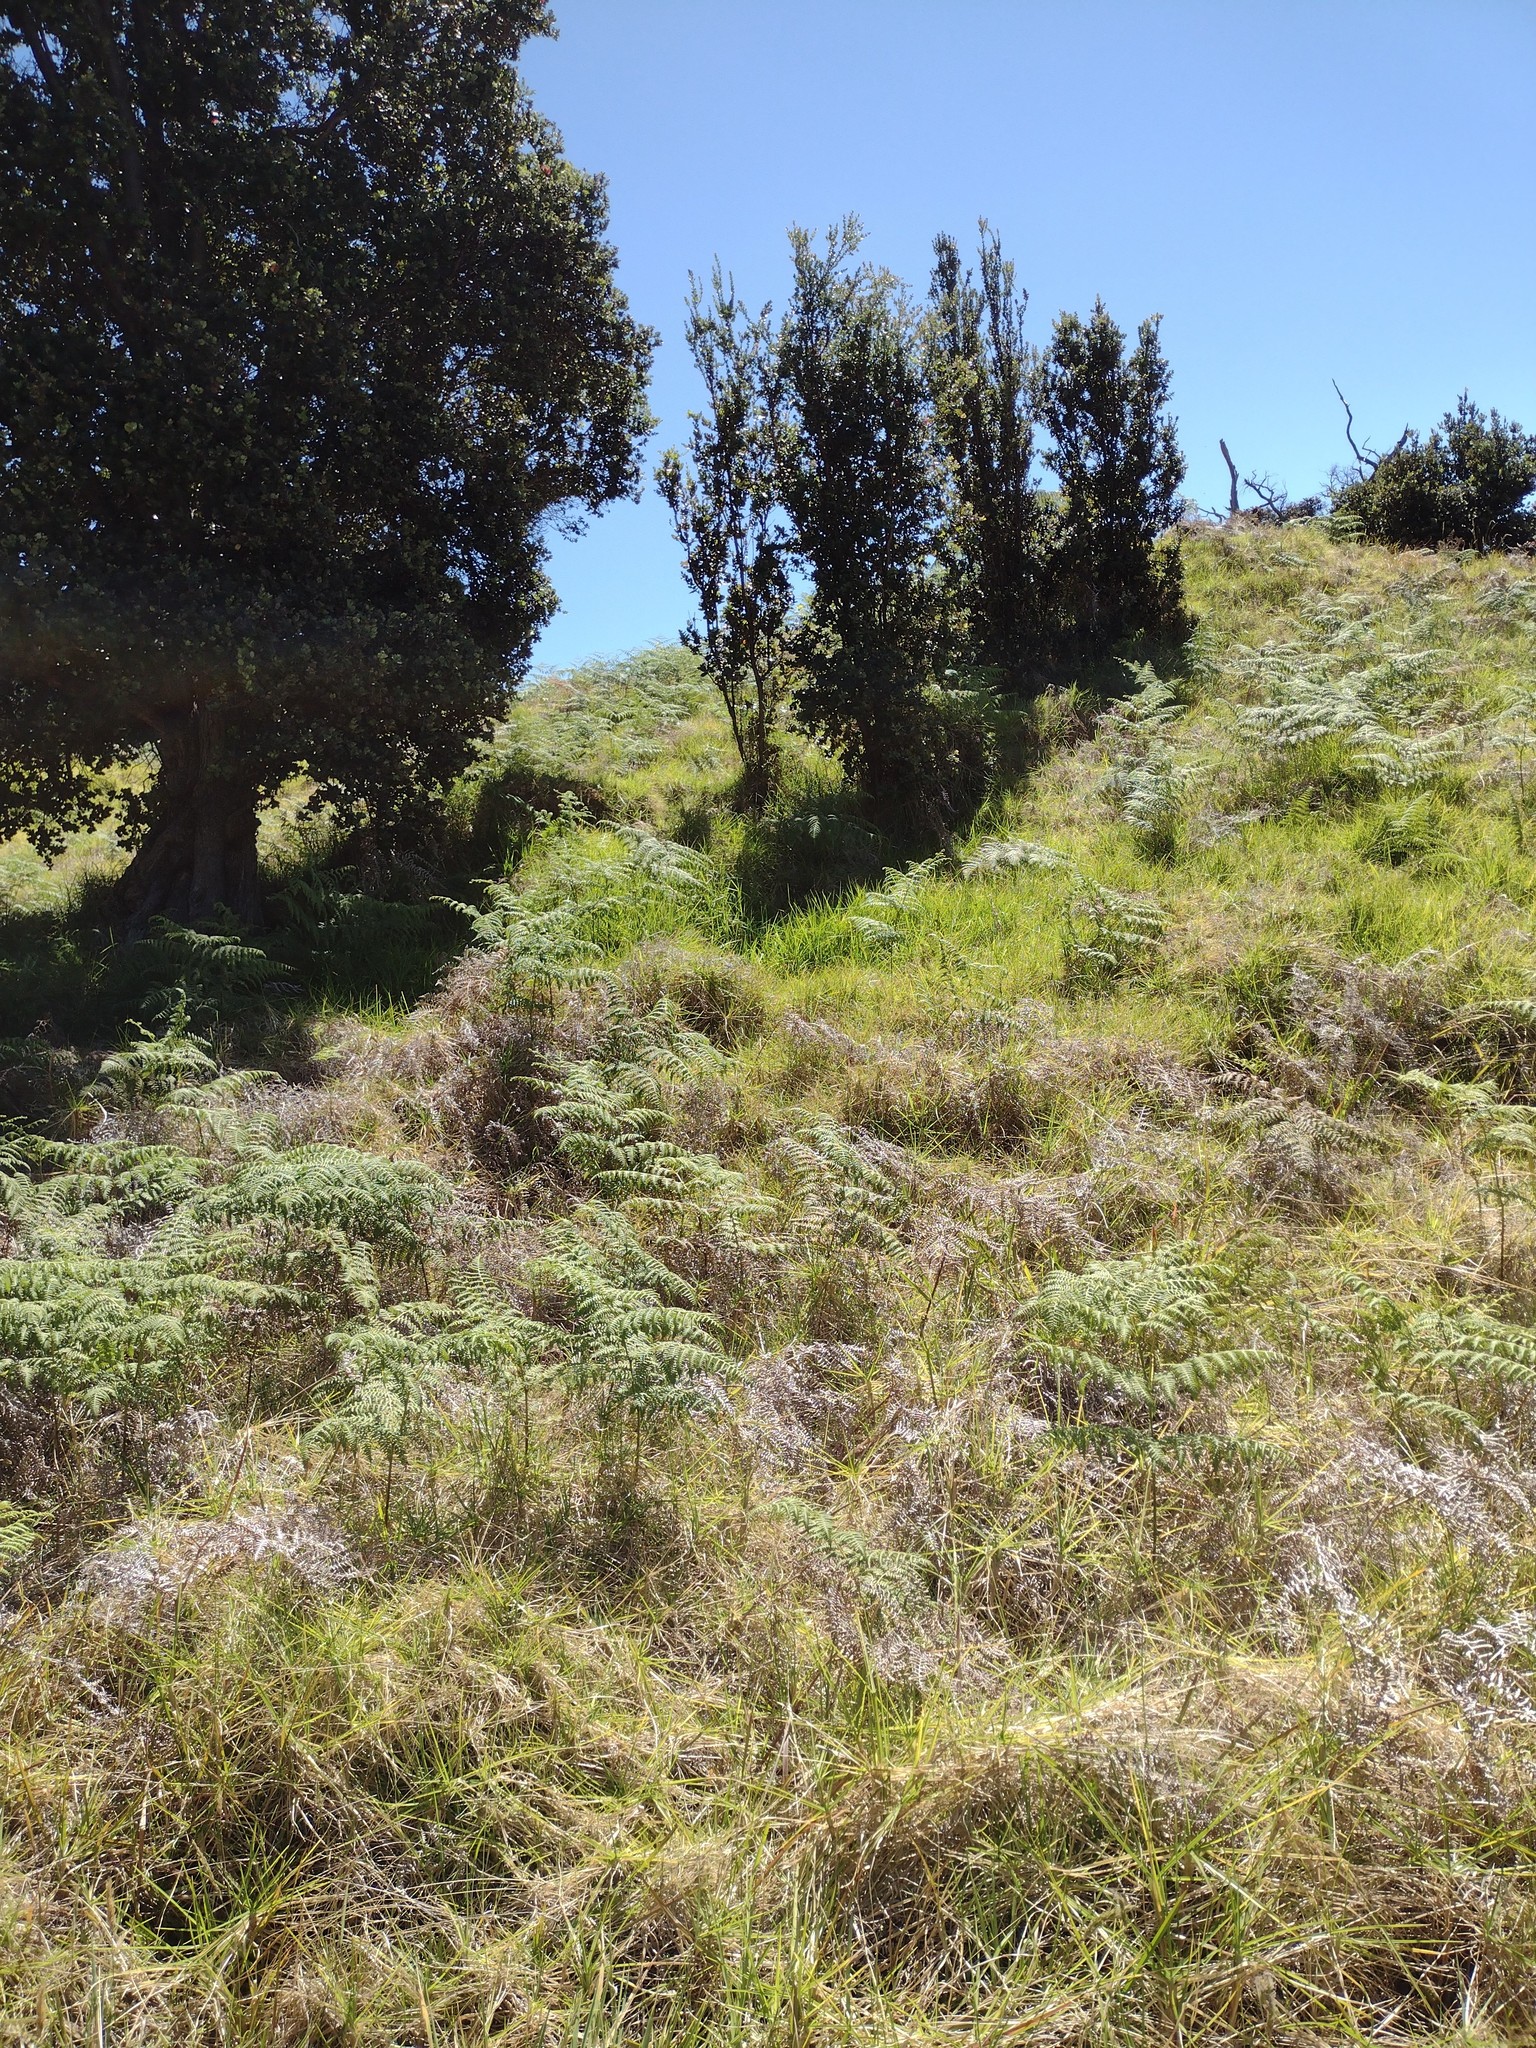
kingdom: Plantae
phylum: Tracheophyta
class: Polypodiopsida
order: Polypodiales
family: Dennstaedtiaceae
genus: Pteridium
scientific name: Pteridium aquilinum
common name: Bracken
